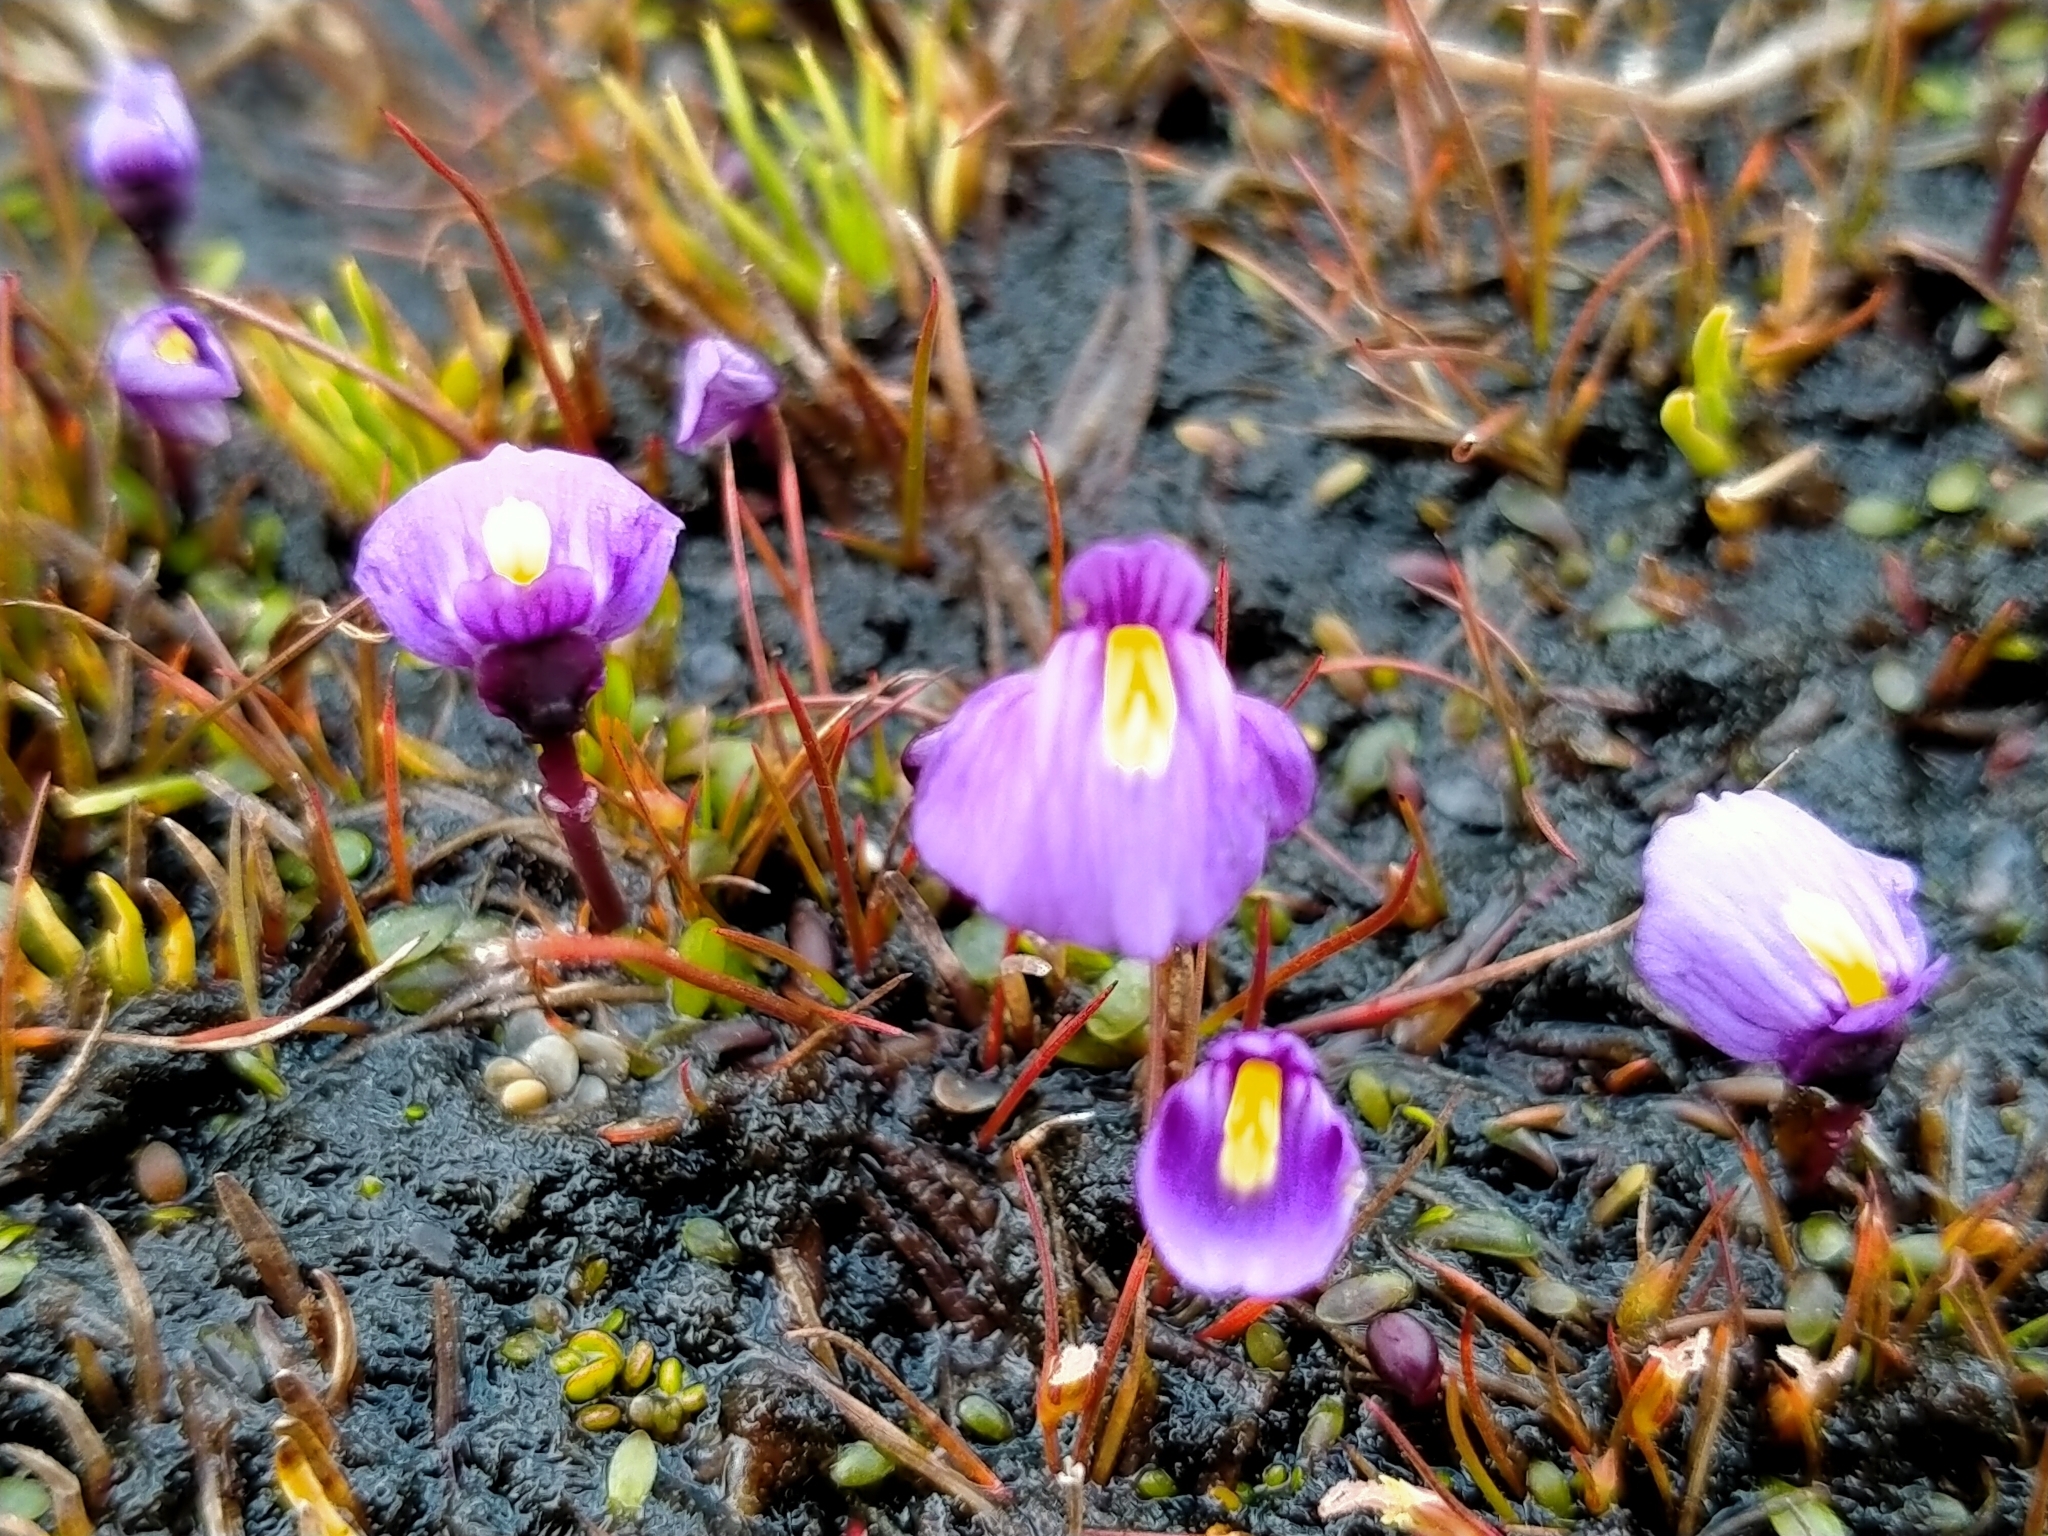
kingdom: Plantae
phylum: Tracheophyta
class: Magnoliopsida
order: Lamiales
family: Lentibulariaceae
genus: Utricularia
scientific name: Utricularia dichotoma
